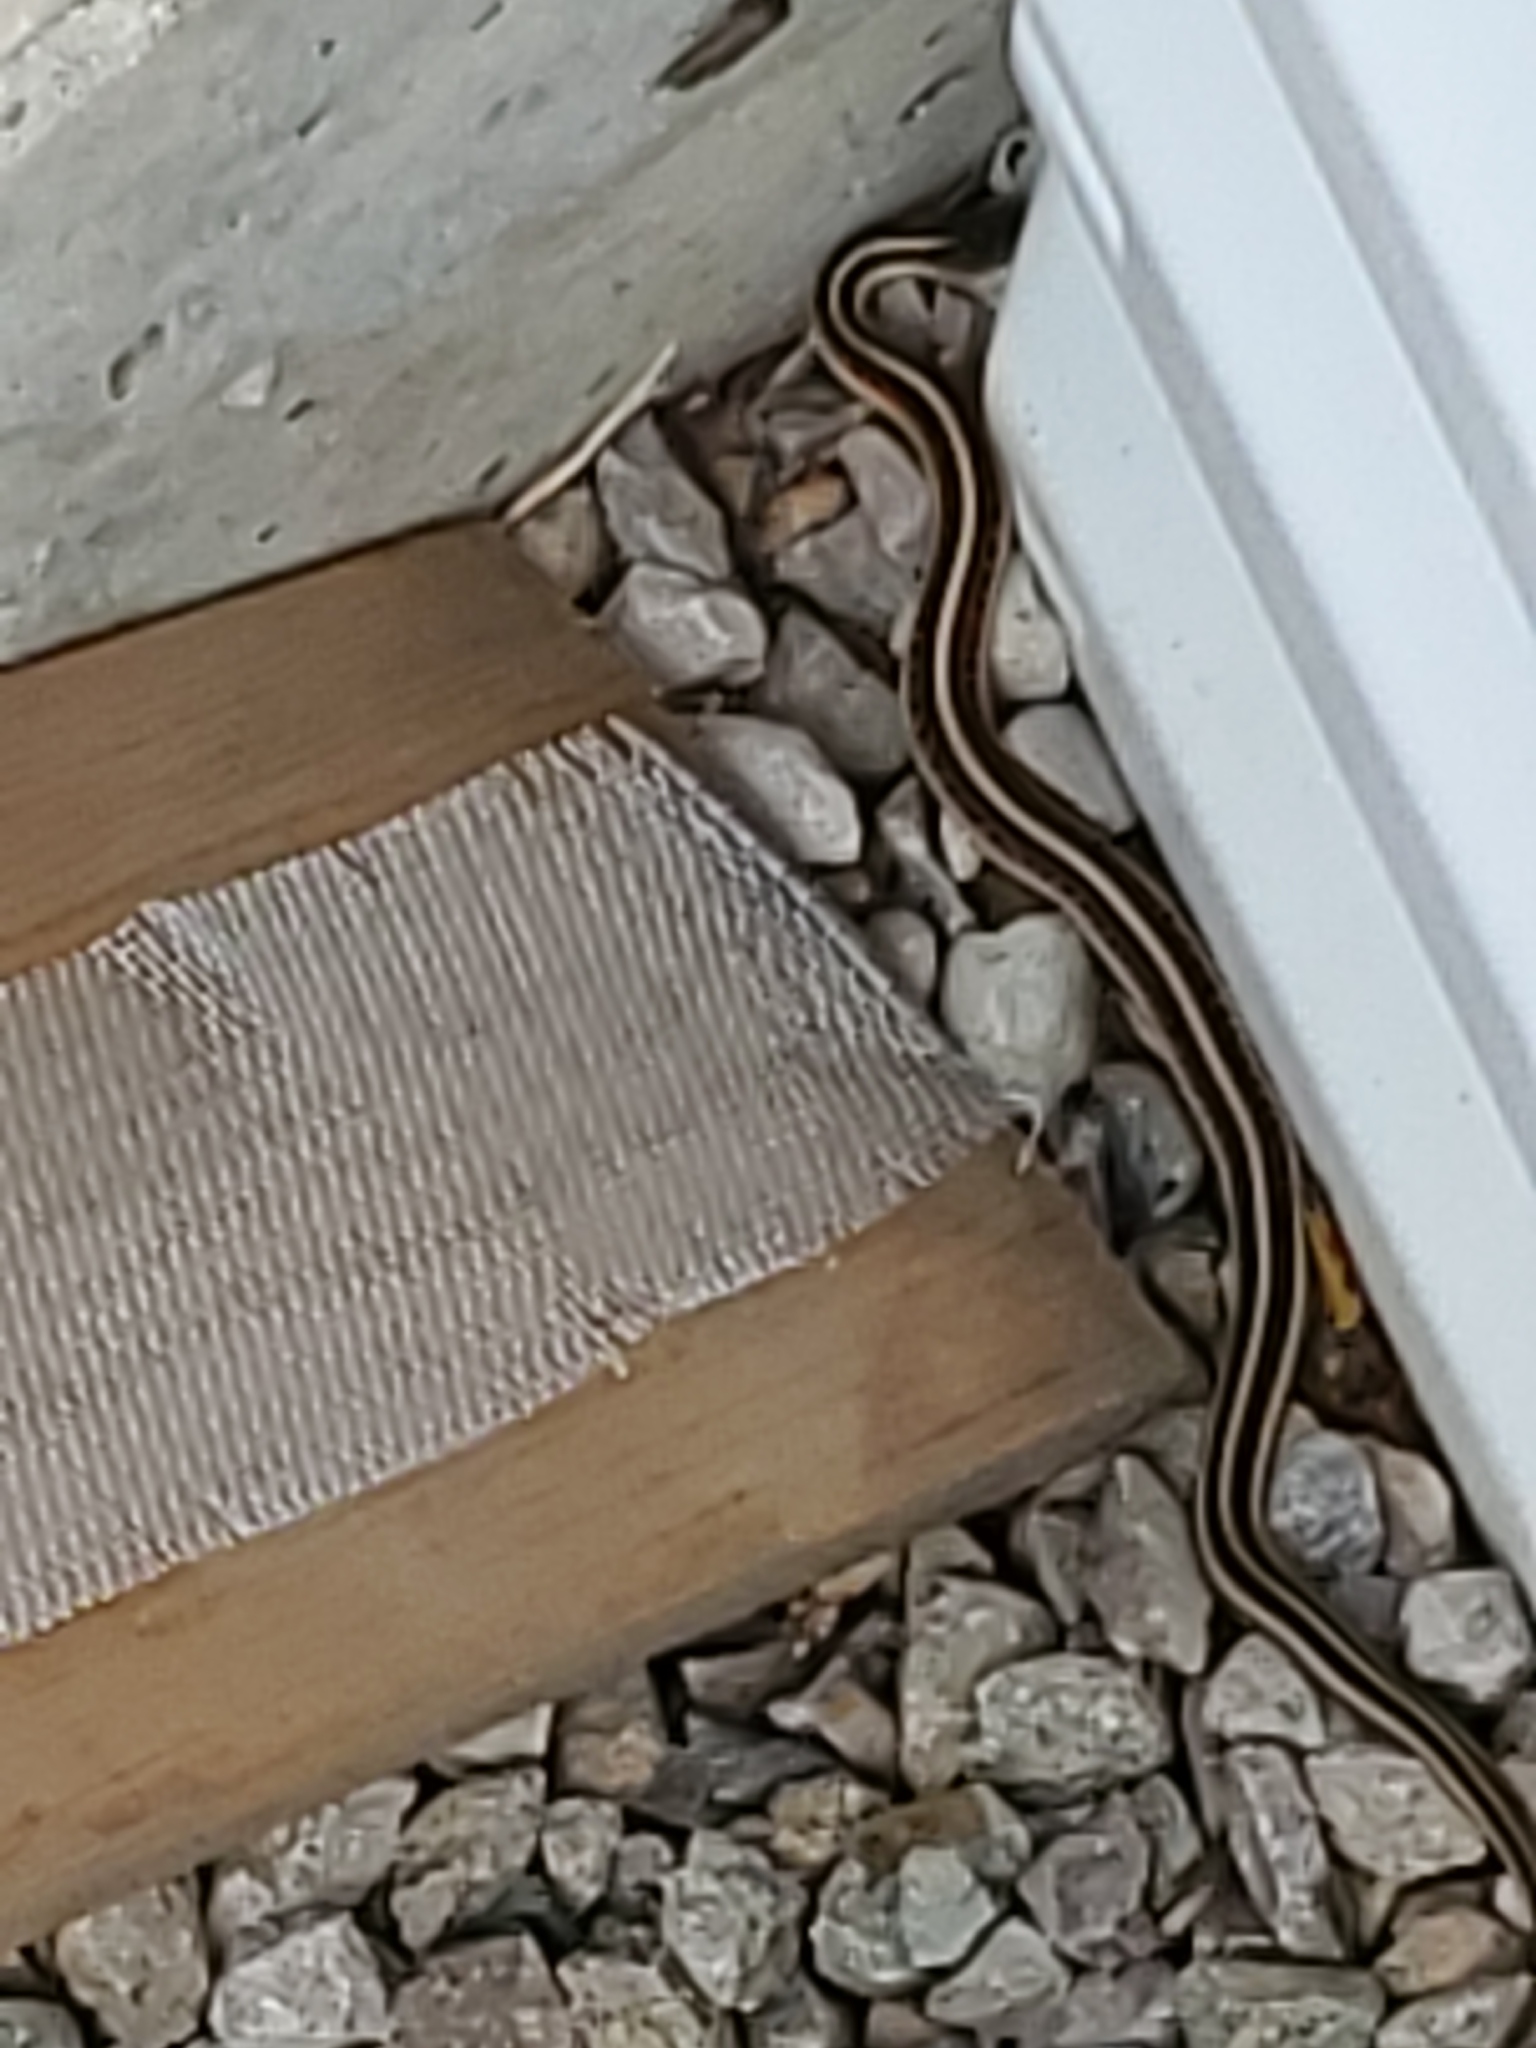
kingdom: Animalia
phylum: Chordata
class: Squamata
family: Colubridae
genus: Thamnophis
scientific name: Thamnophis sirtalis
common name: Common garter snake
